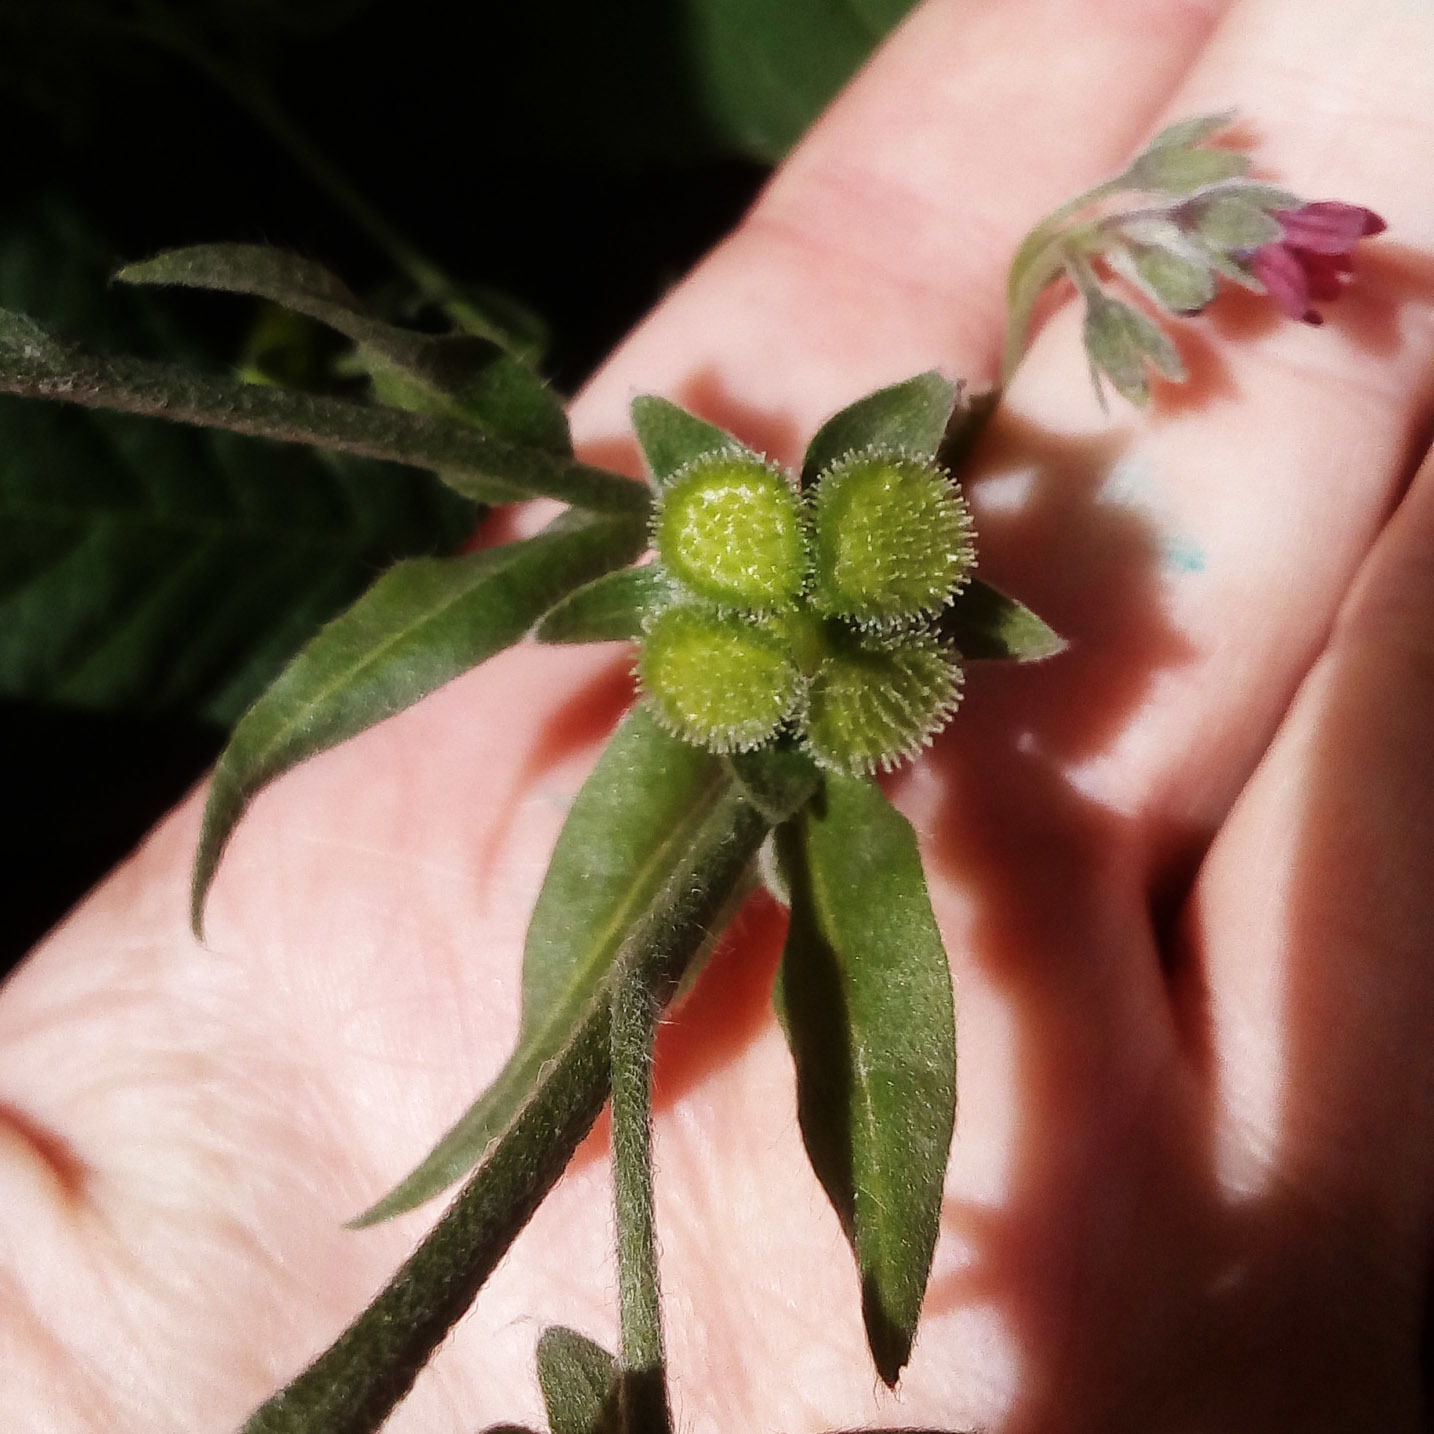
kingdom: Plantae
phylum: Tracheophyta
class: Magnoliopsida
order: Boraginales
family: Boraginaceae
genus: Cynoglossum
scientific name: Cynoglossum officinale
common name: Hound's-tongue
